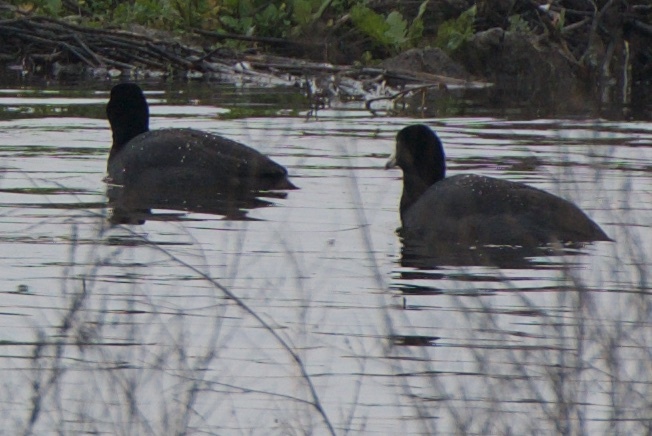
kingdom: Animalia
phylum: Chordata
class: Aves
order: Gruiformes
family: Rallidae
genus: Fulica
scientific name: Fulica americana
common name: American coot
